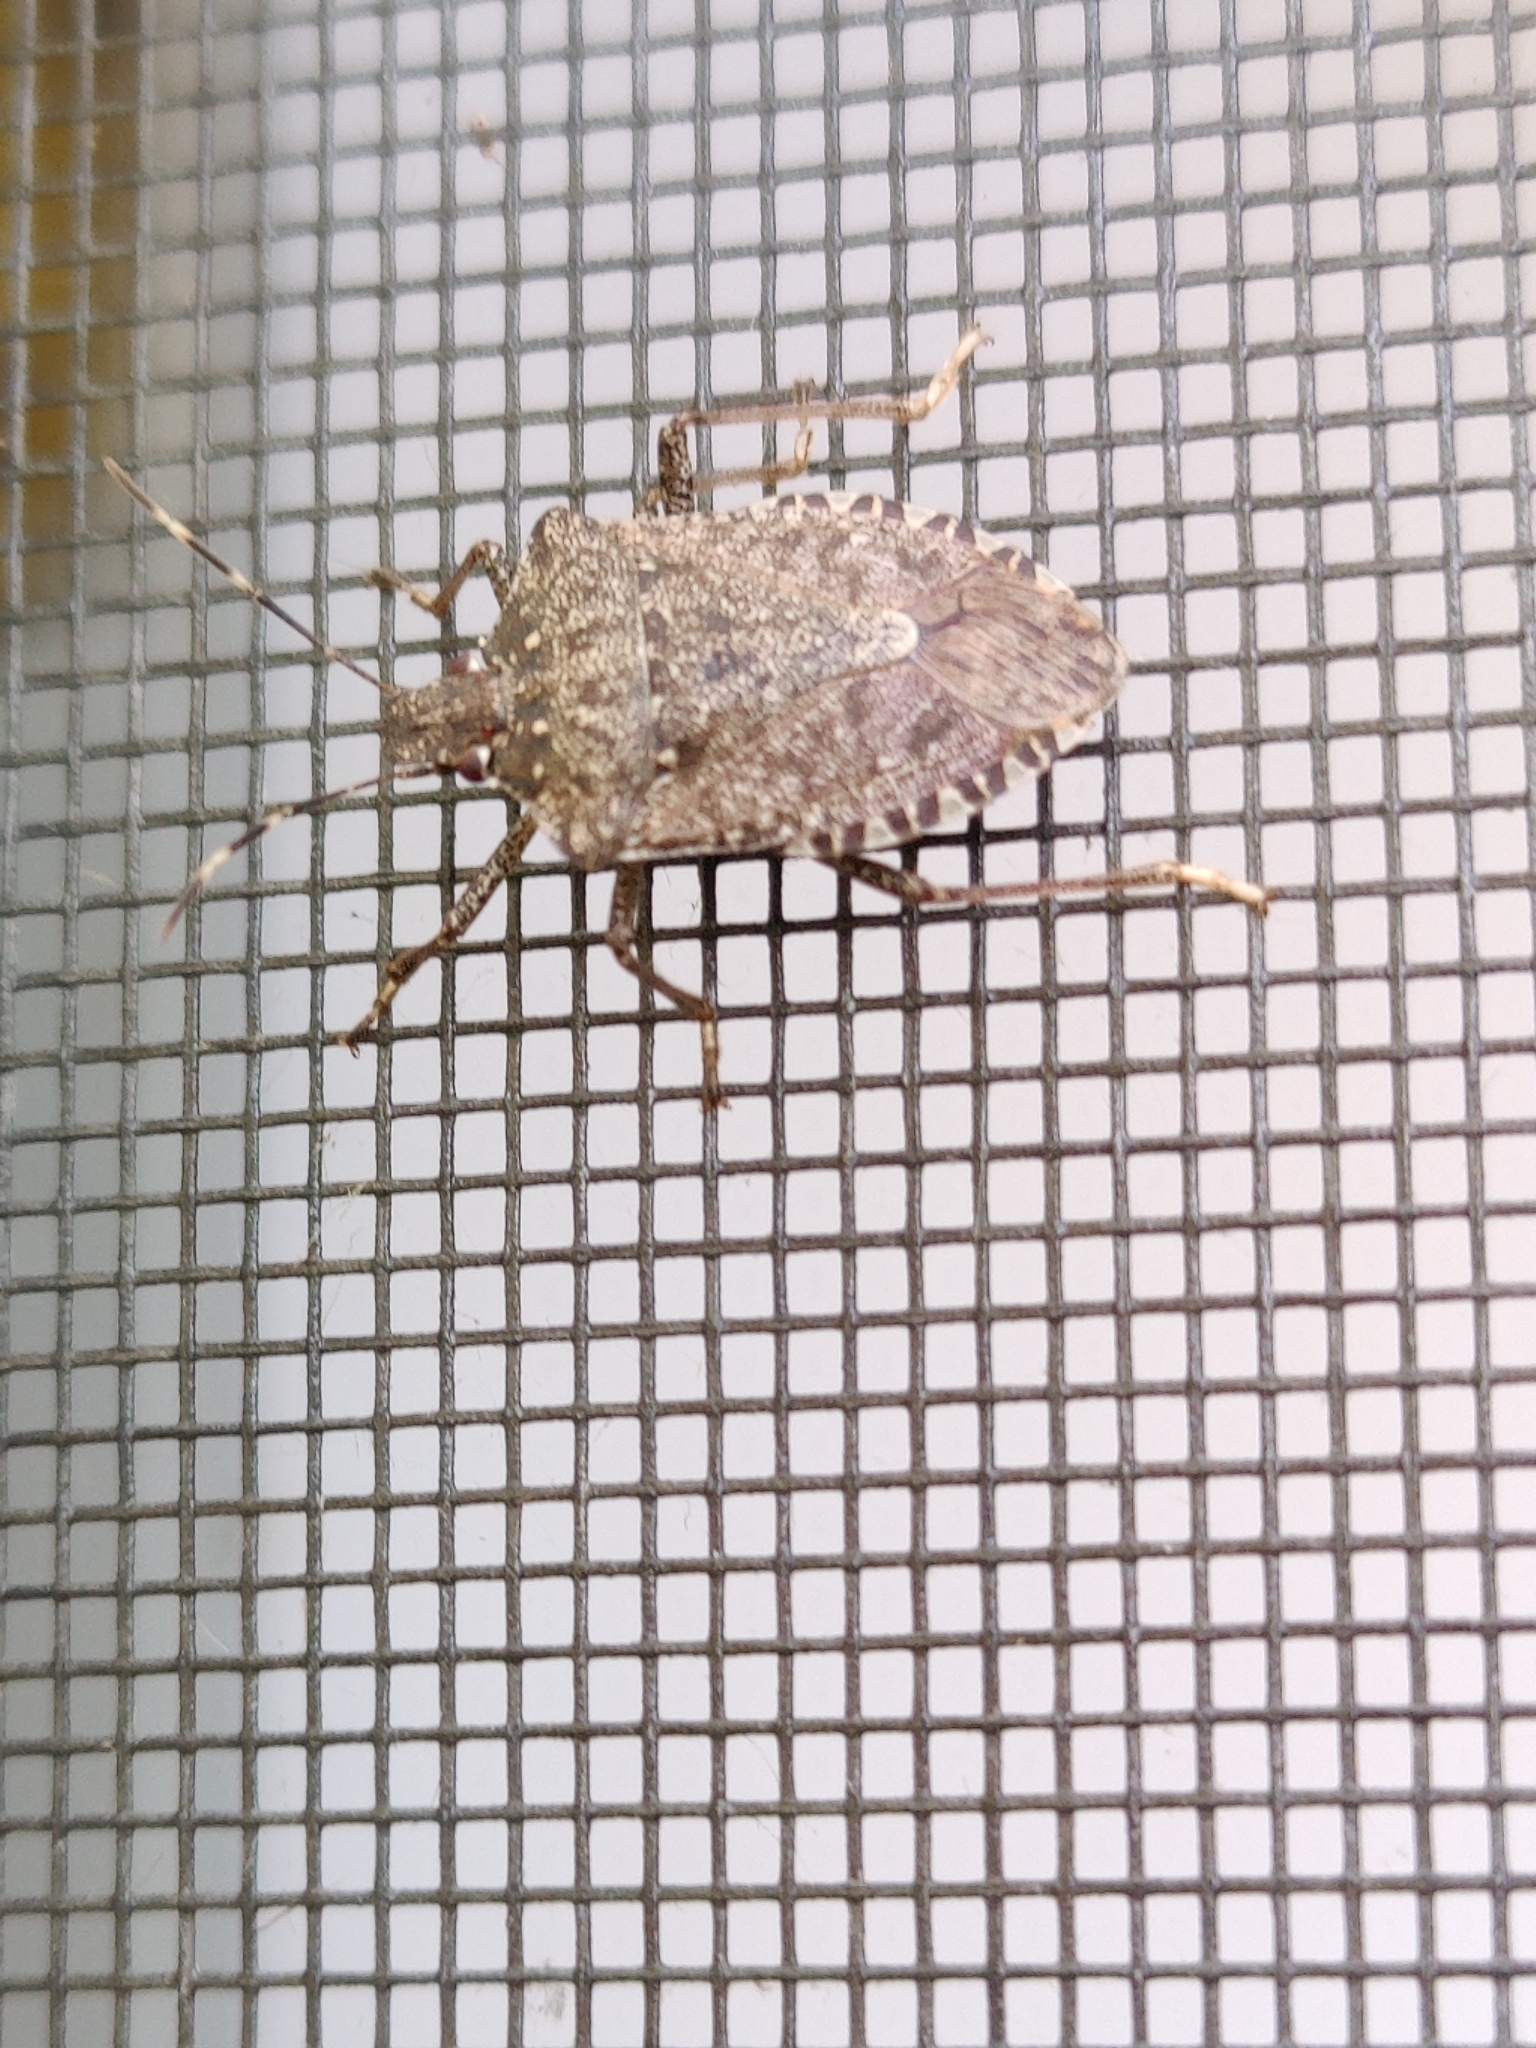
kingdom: Animalia
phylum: Arthropoda
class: Insecta
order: Hemiptera
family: Pentatomidae
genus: Halyomorpha
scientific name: Halyomorpha halys
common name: Brown marmorated stink bug
